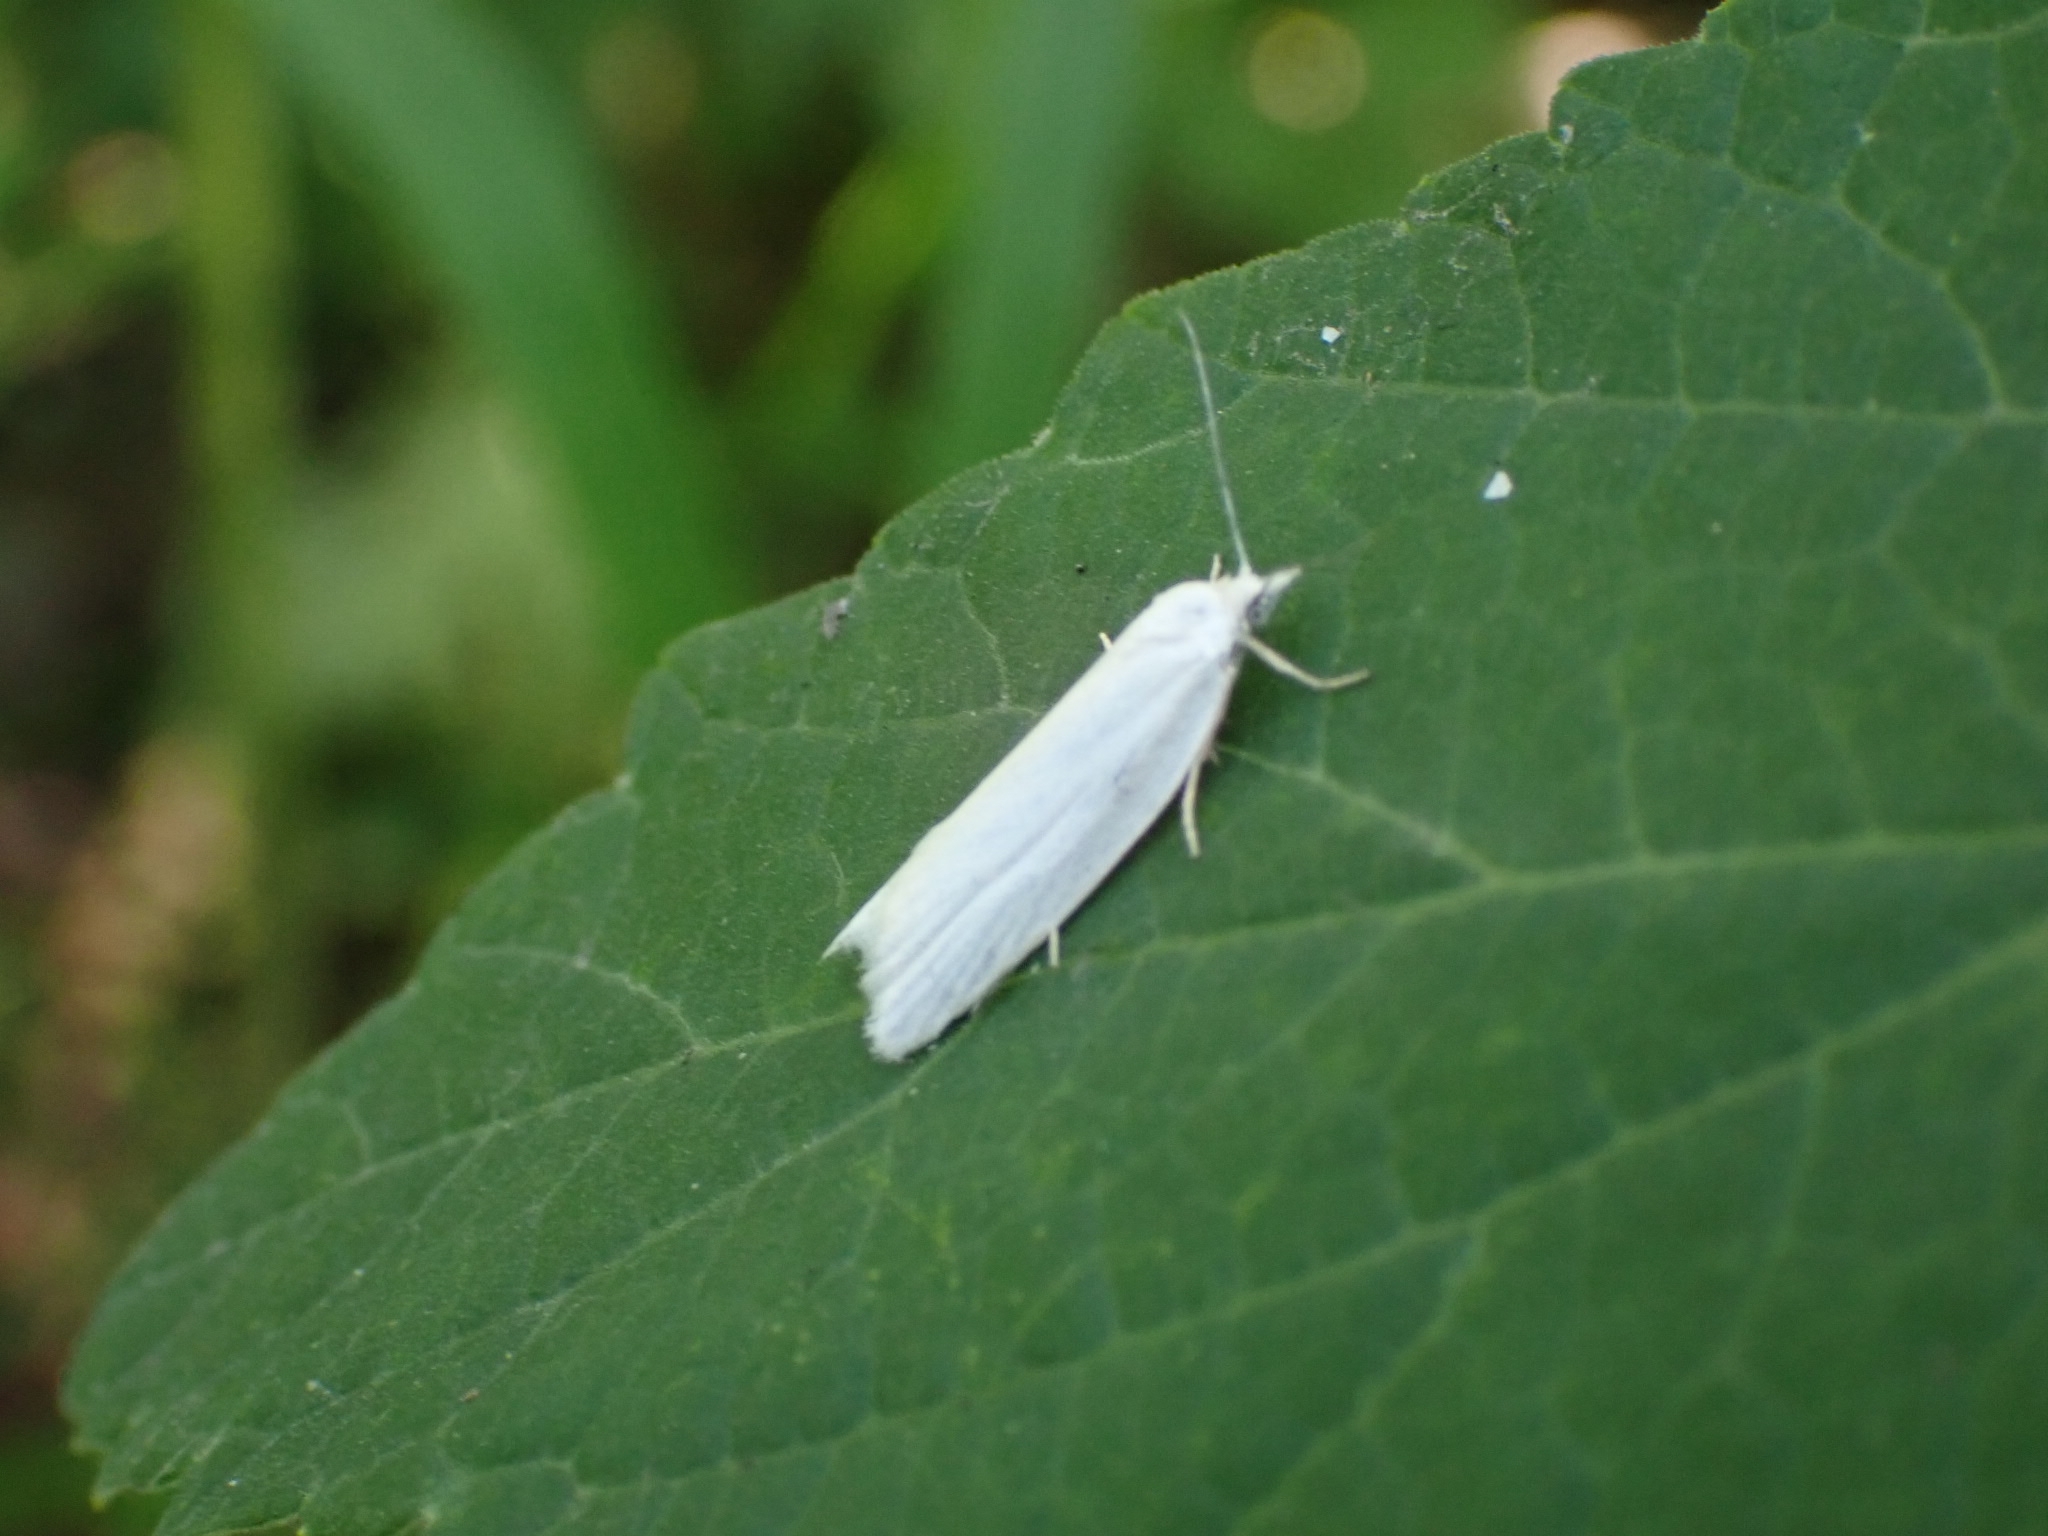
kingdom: Animalia
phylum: Arthropoda
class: Insecta
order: Lepidoptera
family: Tortricidae
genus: Eana
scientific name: Eana argentana
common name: Silver shade
